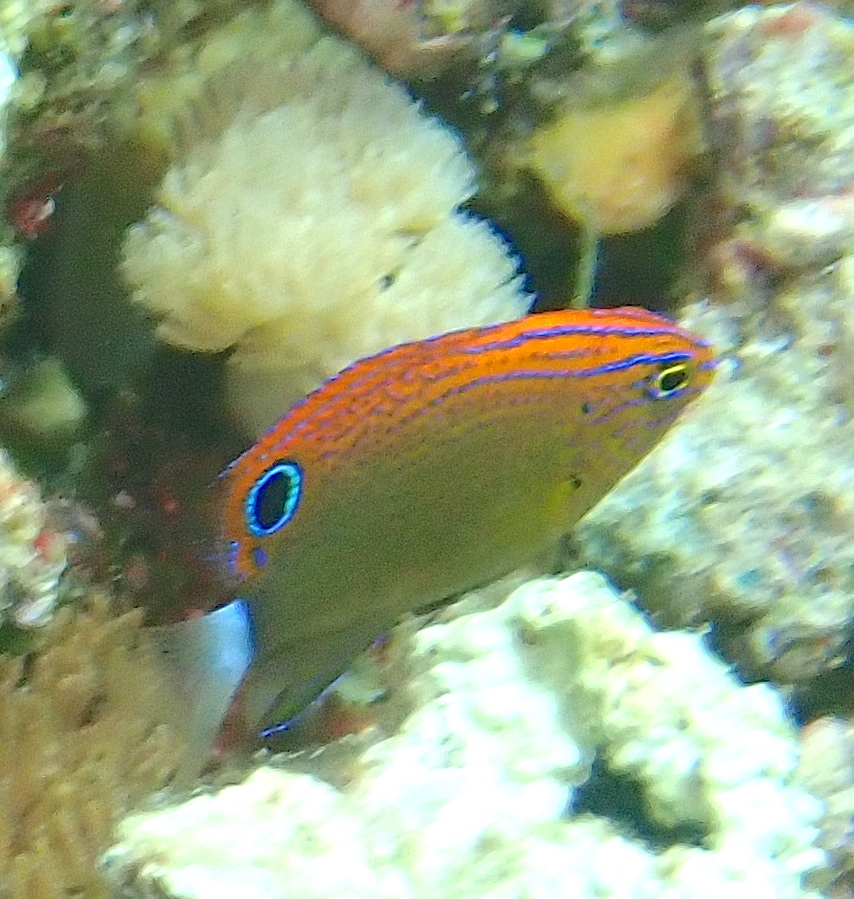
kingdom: Animalia
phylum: Chordata
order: Perciformes
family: Pomacentridae
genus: Pomacentrus
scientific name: Pomacentrus bankanensis
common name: Speckled damsel
